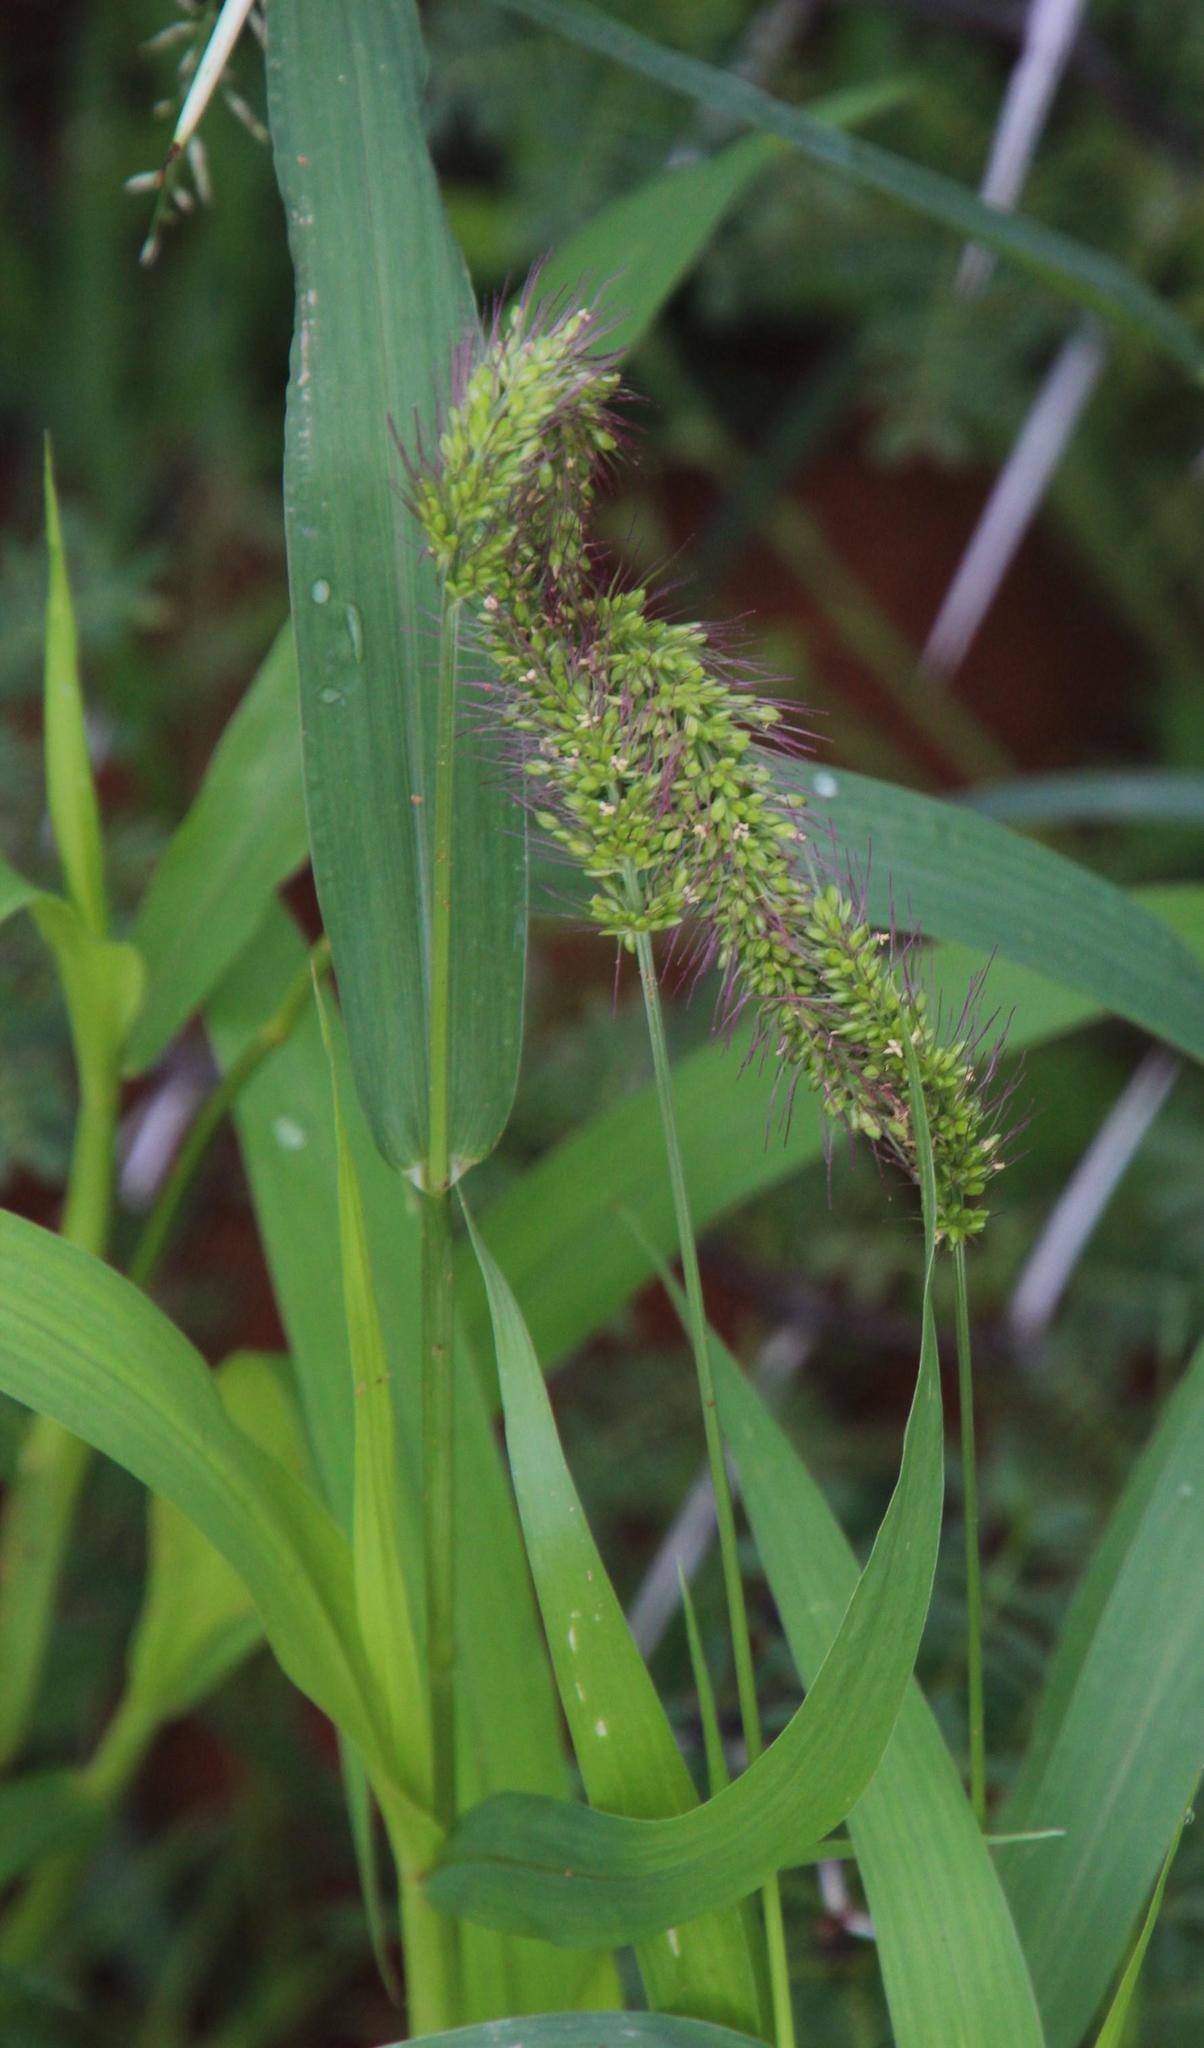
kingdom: Plantae
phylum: Tracheophyta
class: Liliopsida
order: Poales
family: Poaceae
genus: Setaria
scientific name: Setaria verticillata
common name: Hooked bristlegrass
